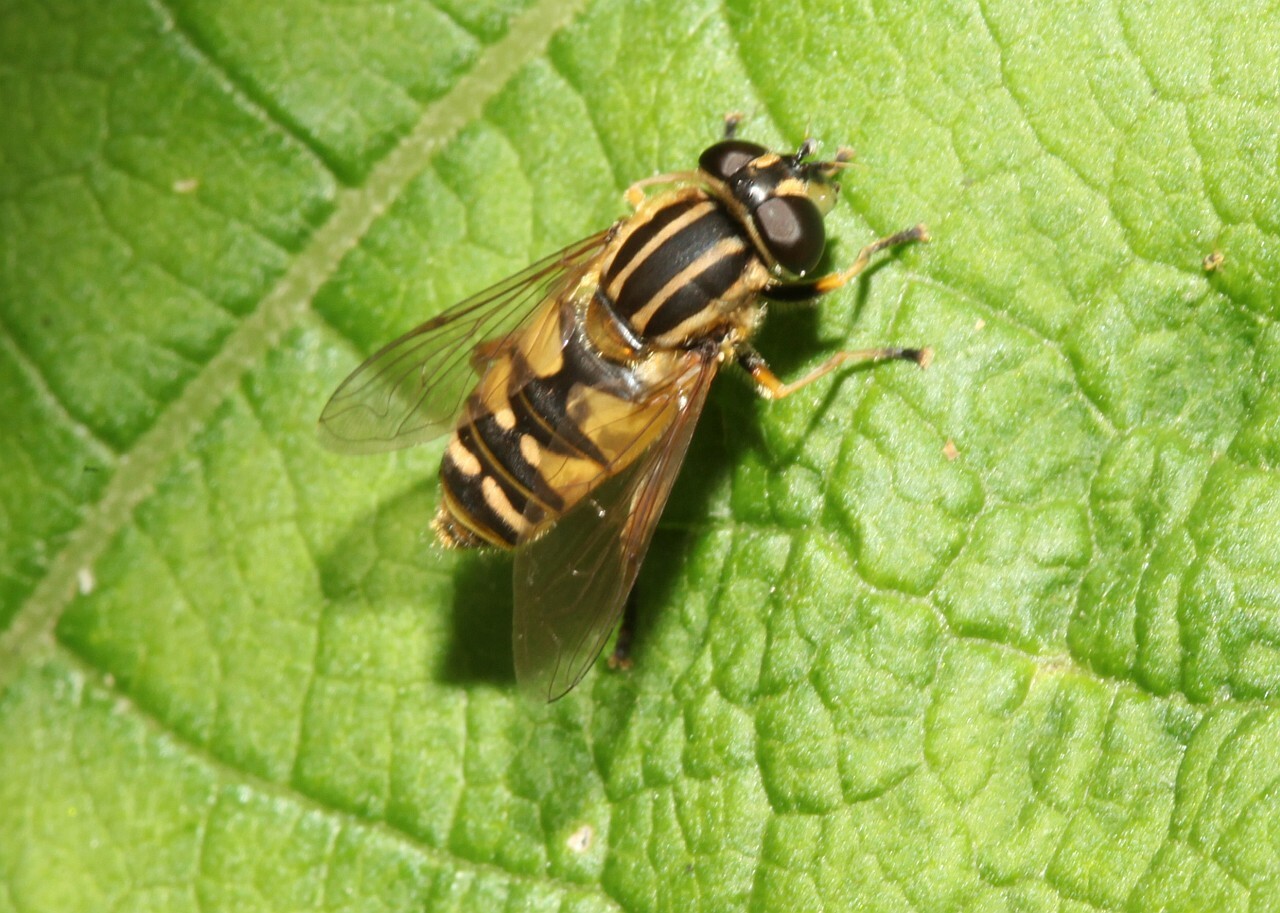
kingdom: Animalia
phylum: Arthropoda
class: Insecta
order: Diptera
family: Syrphidae
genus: Helophilus
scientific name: Helophilus pendulus
